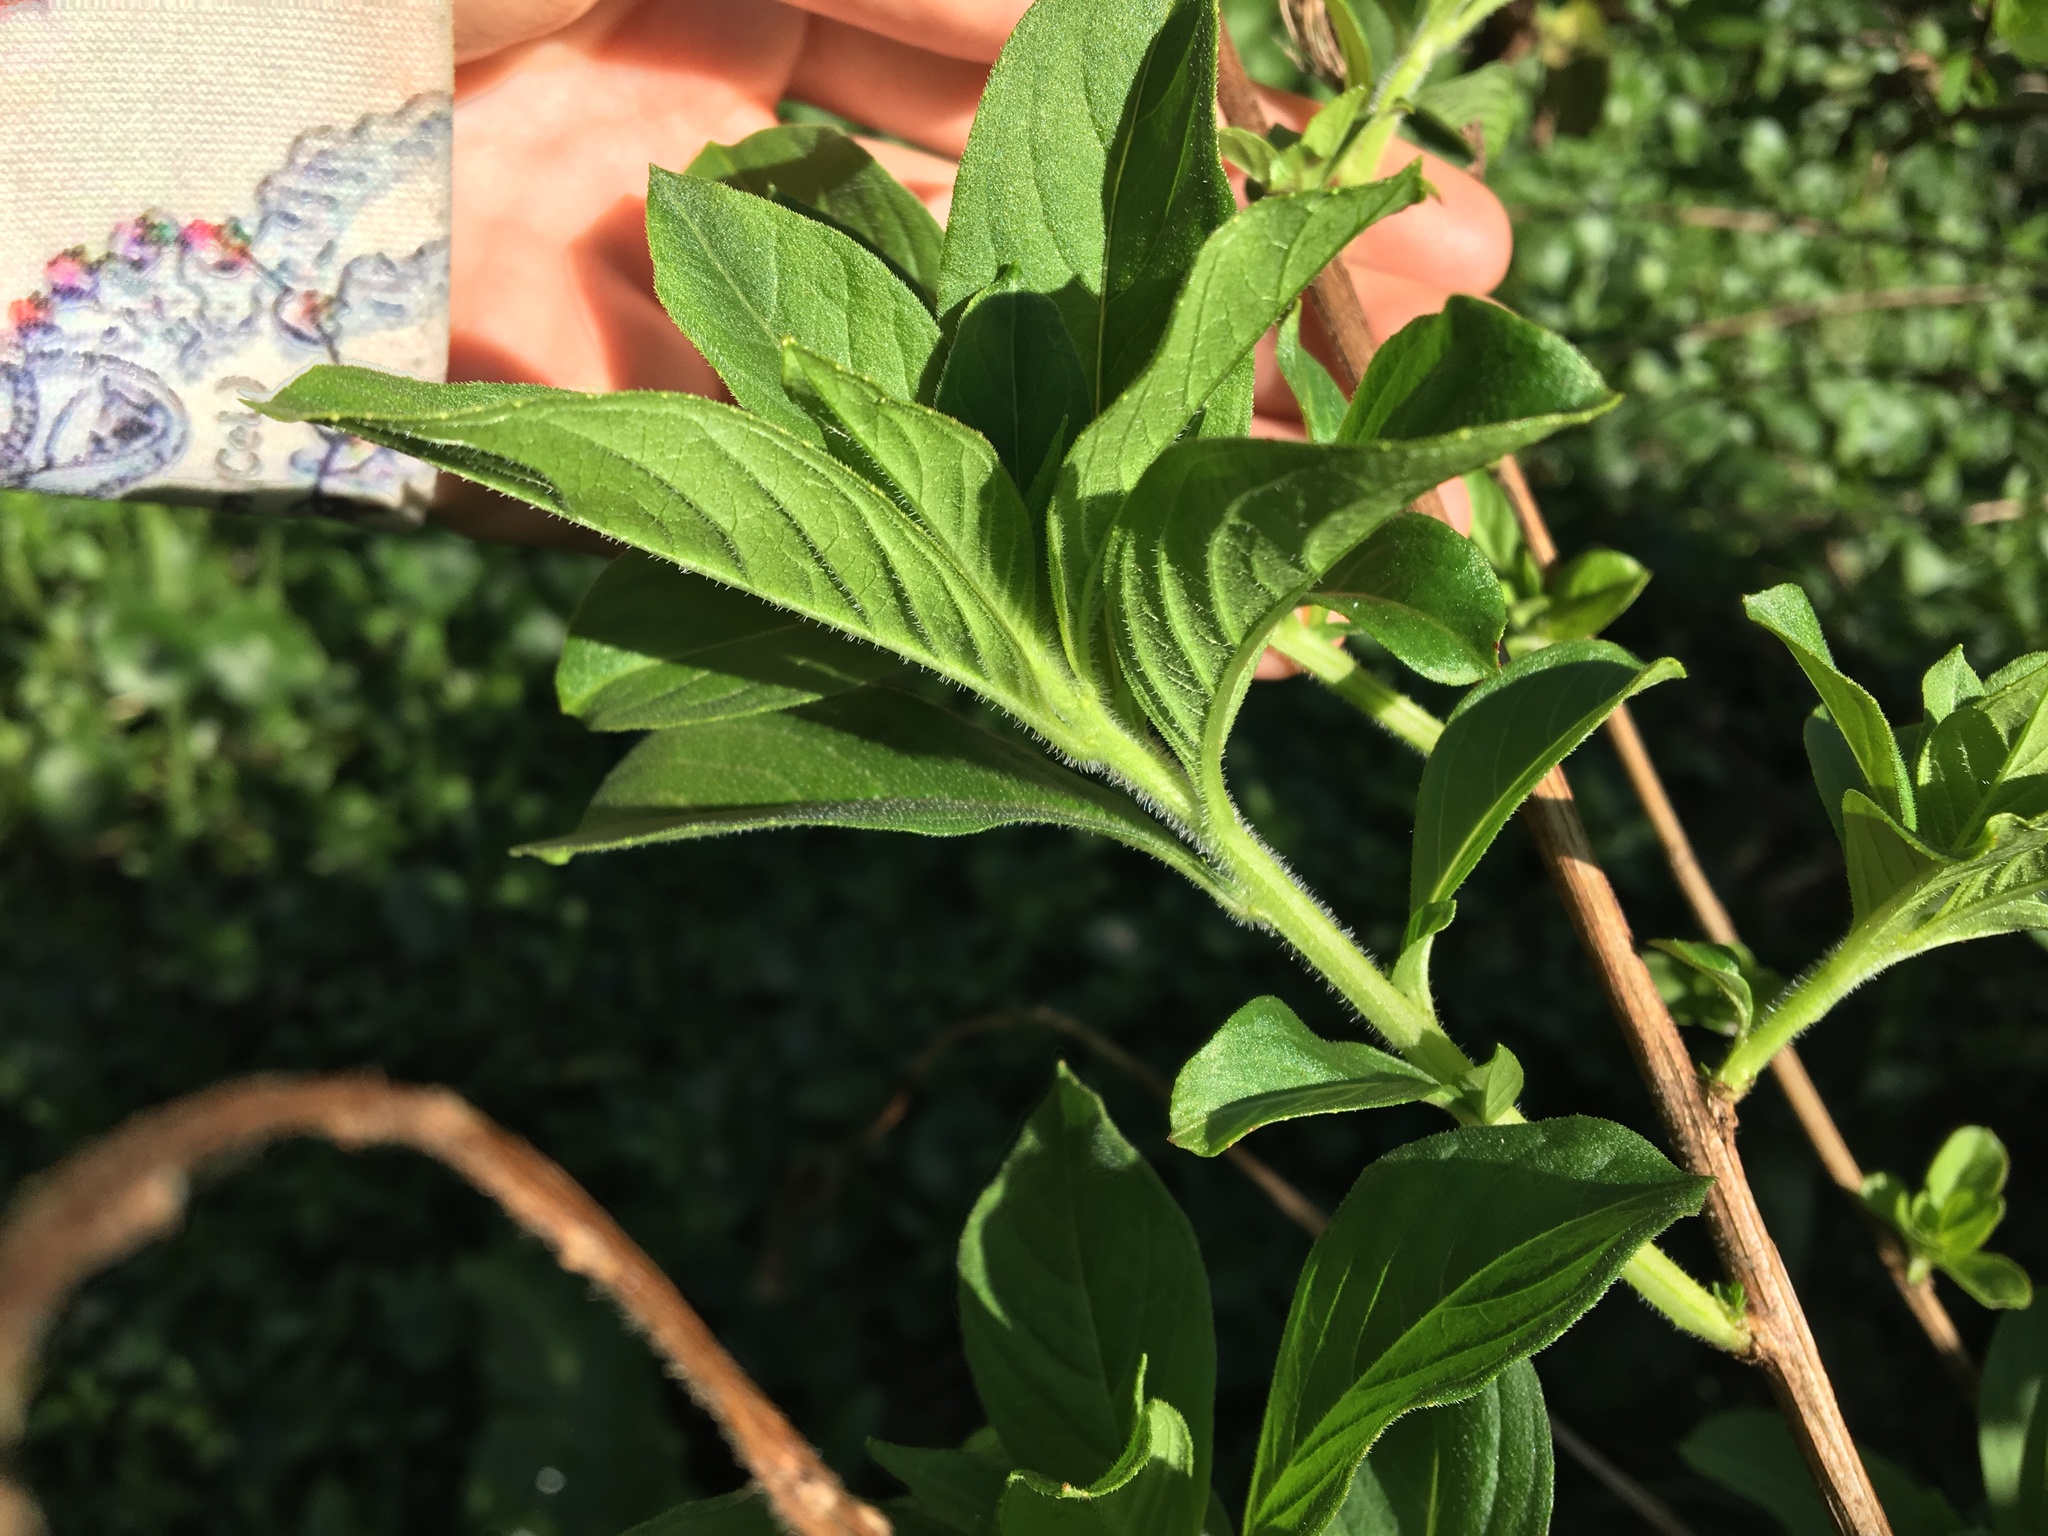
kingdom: Plantae
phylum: Tracheophyta
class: Magnoliopsida
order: Myrtales
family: Onagraceae
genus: Ludwigia
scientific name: Ludwigia peruviana
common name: Peruvian primrose-willow
